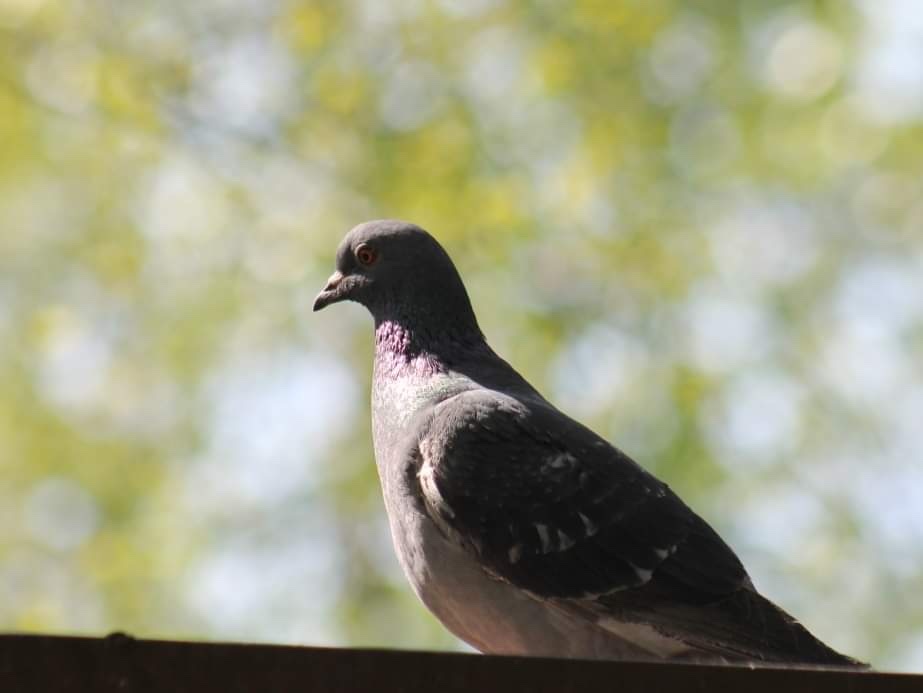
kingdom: Animalia
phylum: Chordata
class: Aves
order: Columbiformes
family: Columbidae
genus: Columba
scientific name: Columba livia
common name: Rock pigeon
